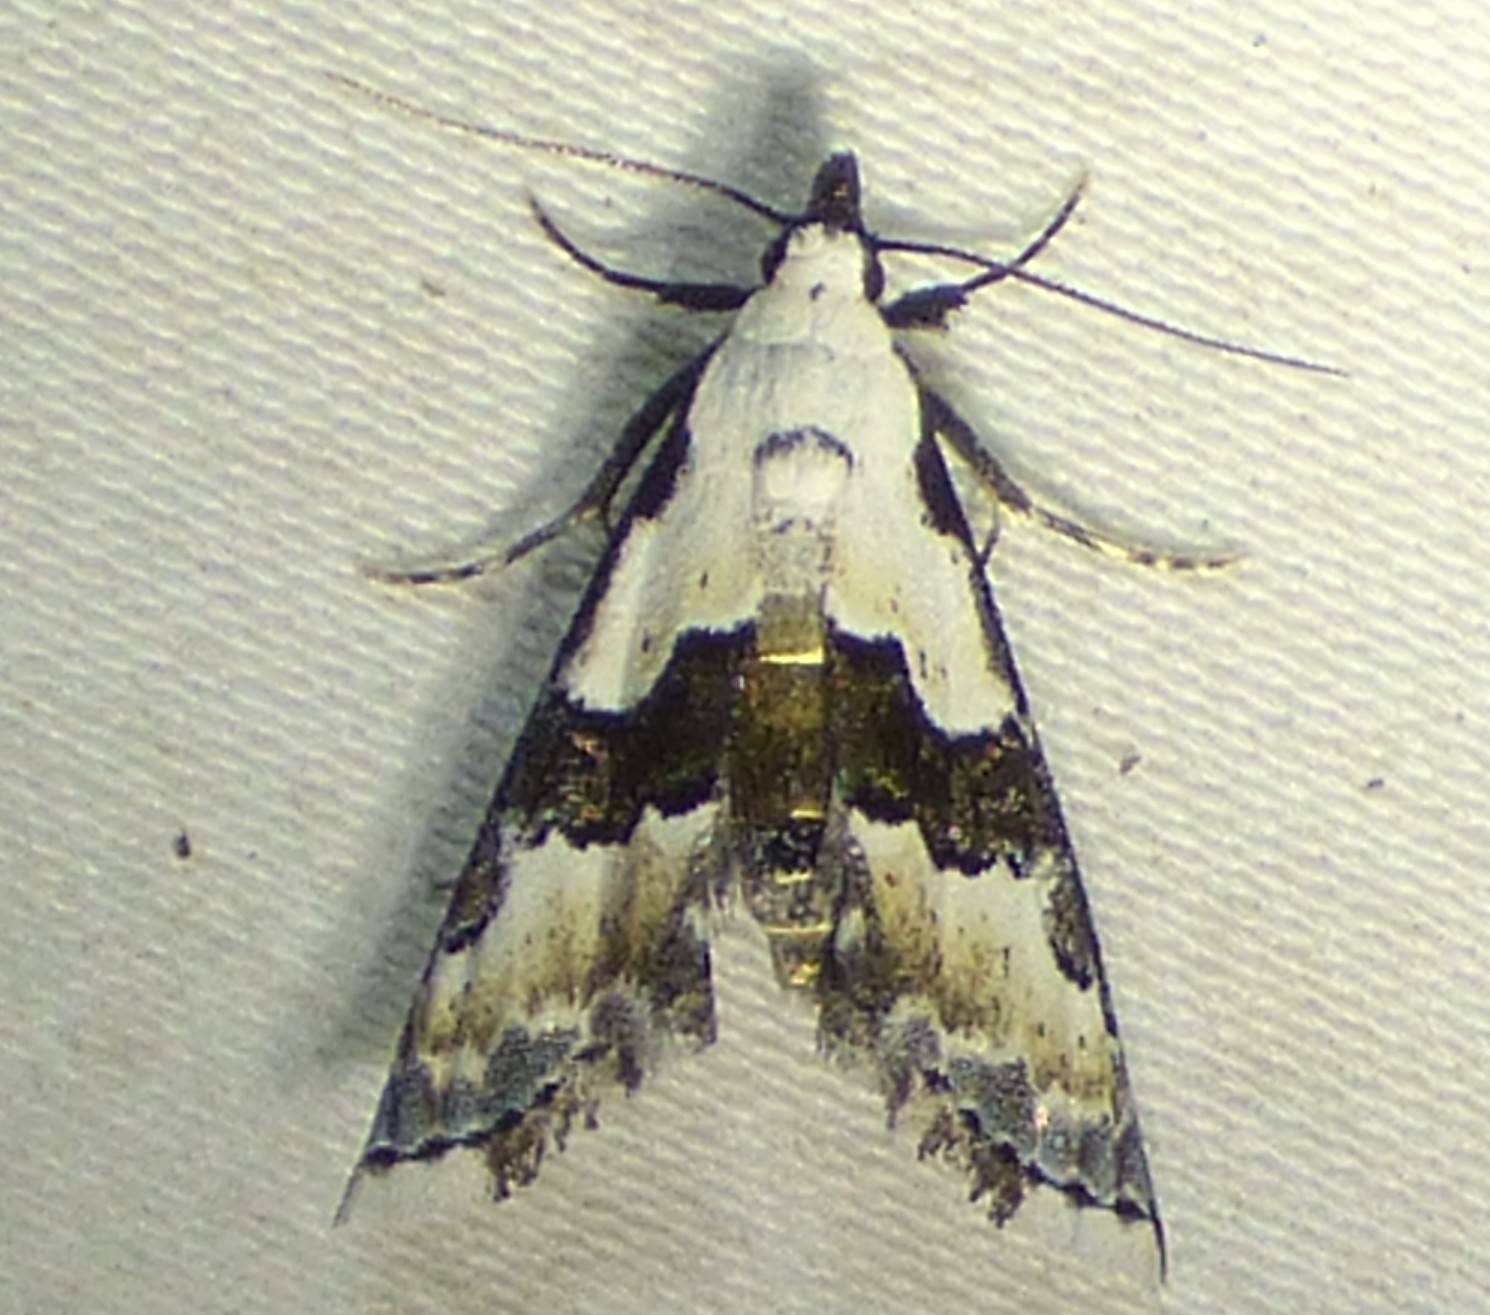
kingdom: Animalia
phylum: Arthropoda
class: Insecta
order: Lepidoptera
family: Noctuidae
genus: Nigetia
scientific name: Nigetia formosalis
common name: Thin-winged owlet
